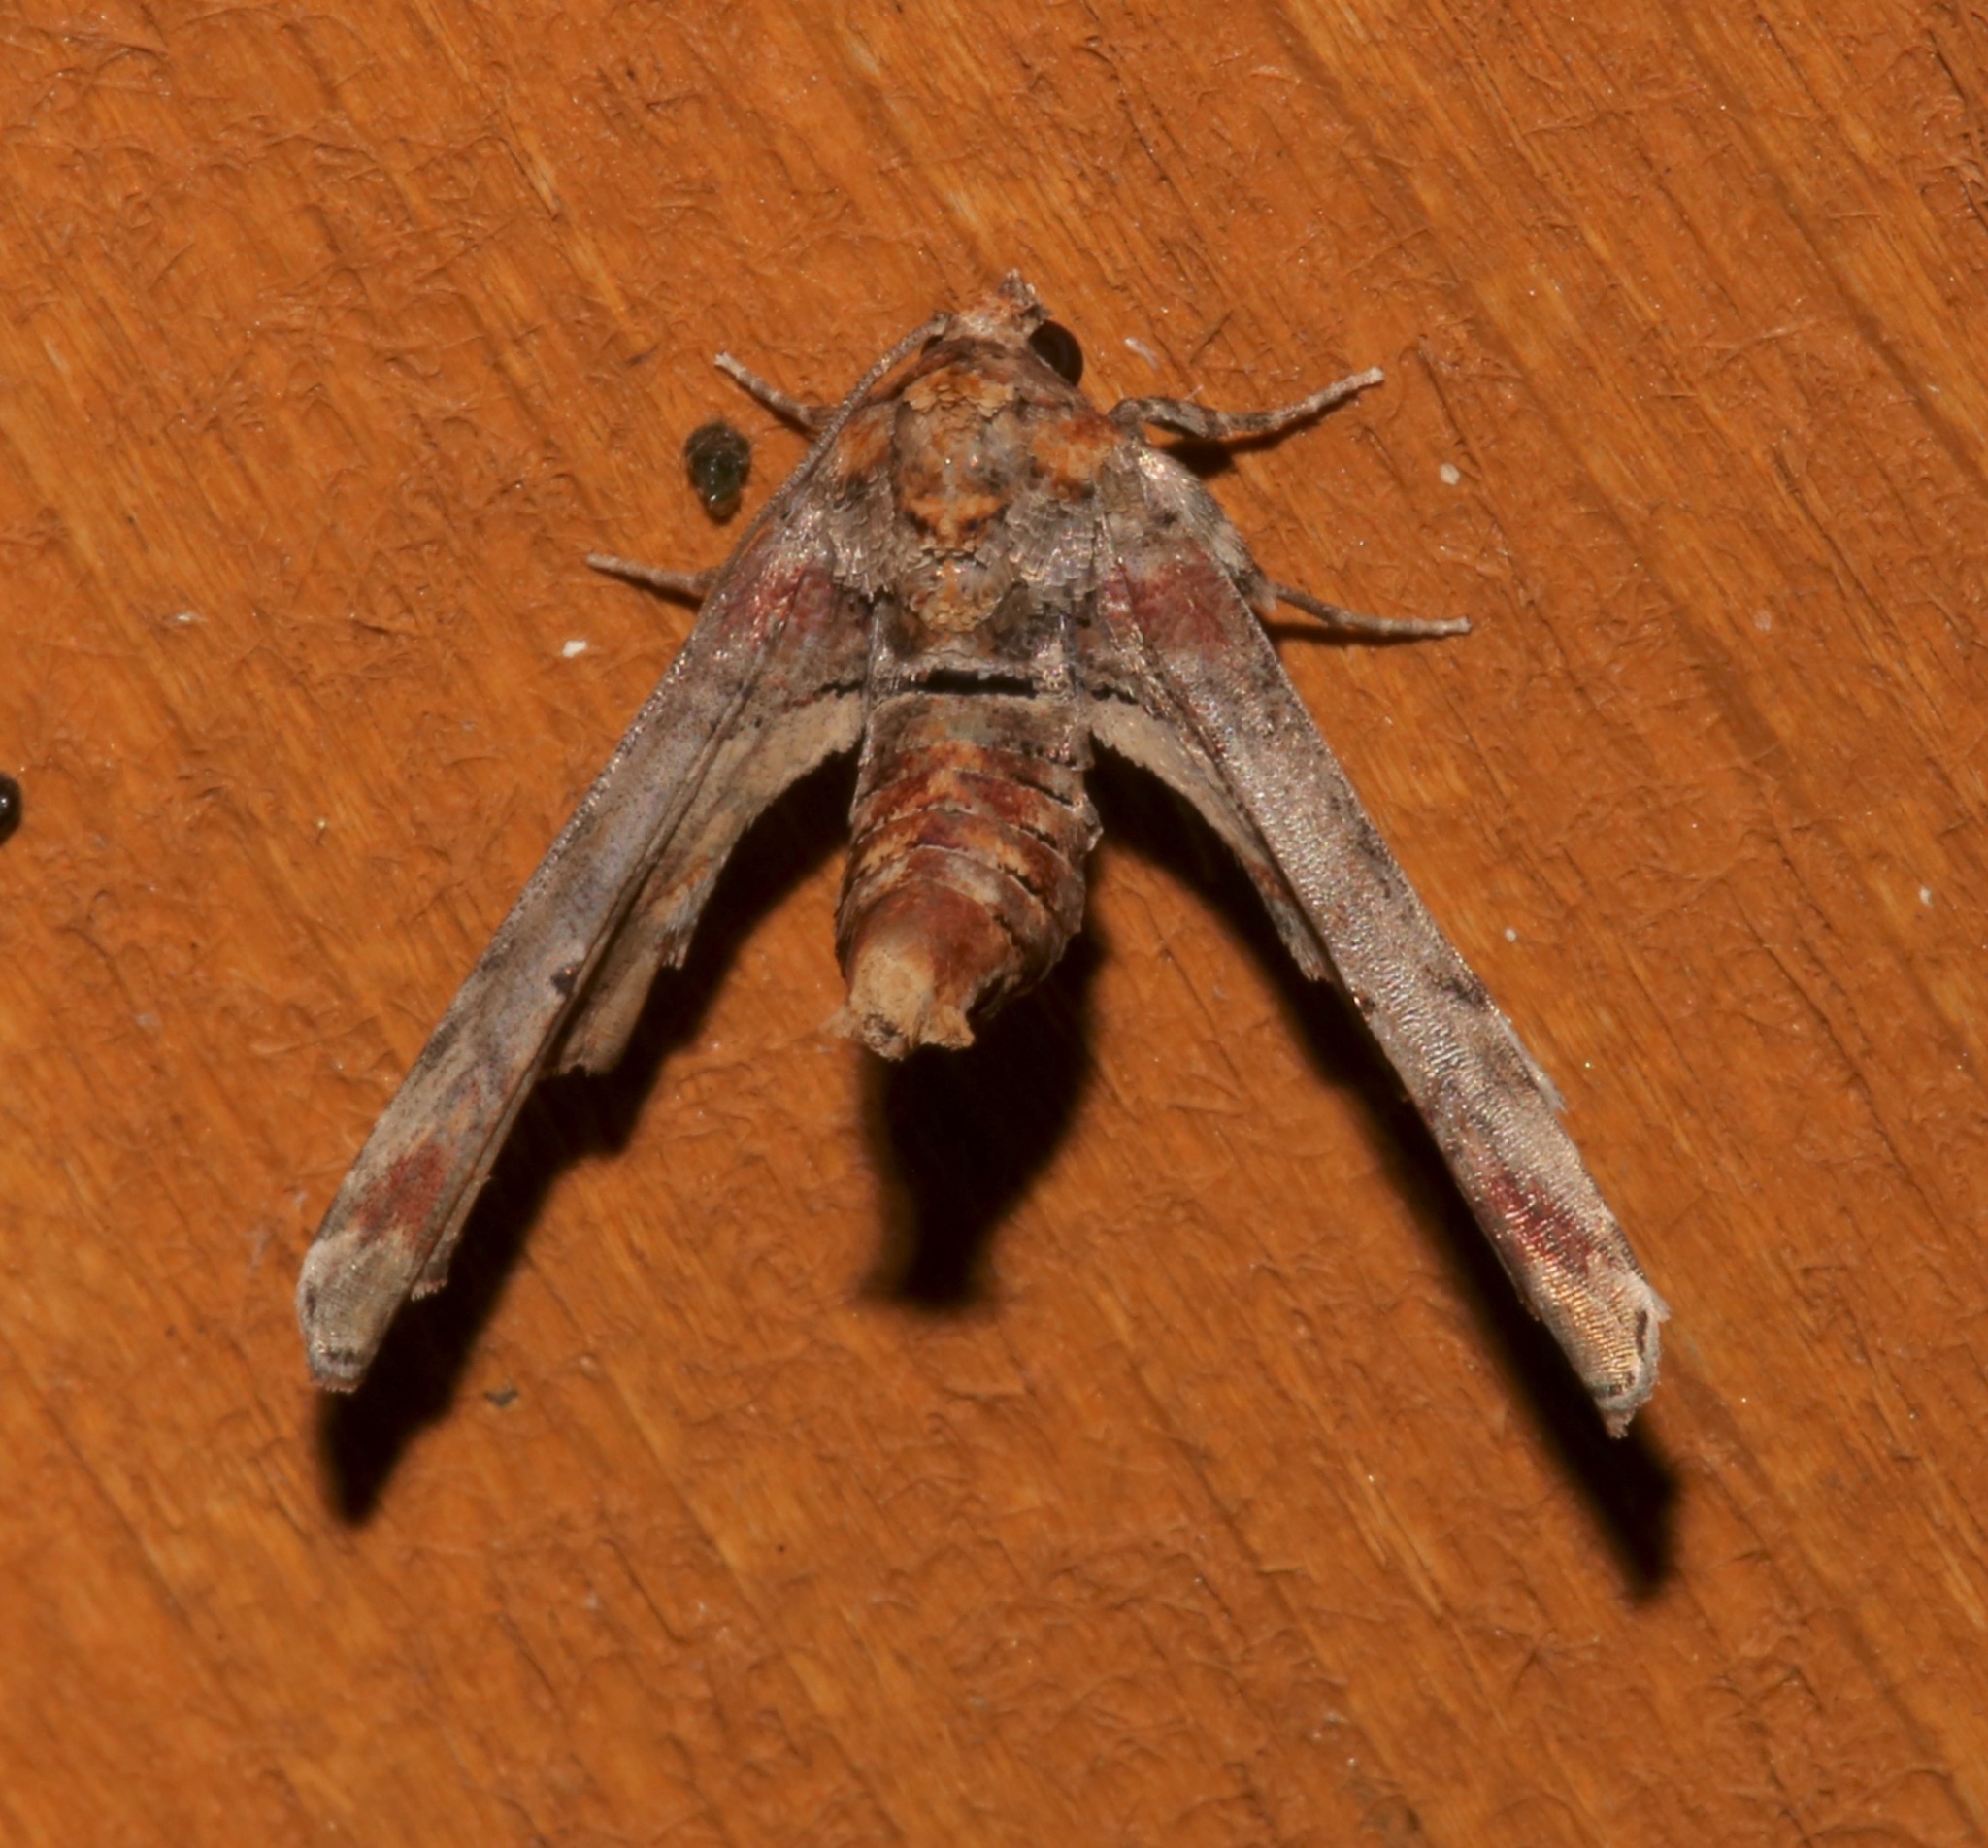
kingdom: Animalia
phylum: Arthropoda
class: Insecta
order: Lepidoptera
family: Euteliidae
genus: Marathyssa
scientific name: Marathyssa inficita
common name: Dark marathyssa moth
